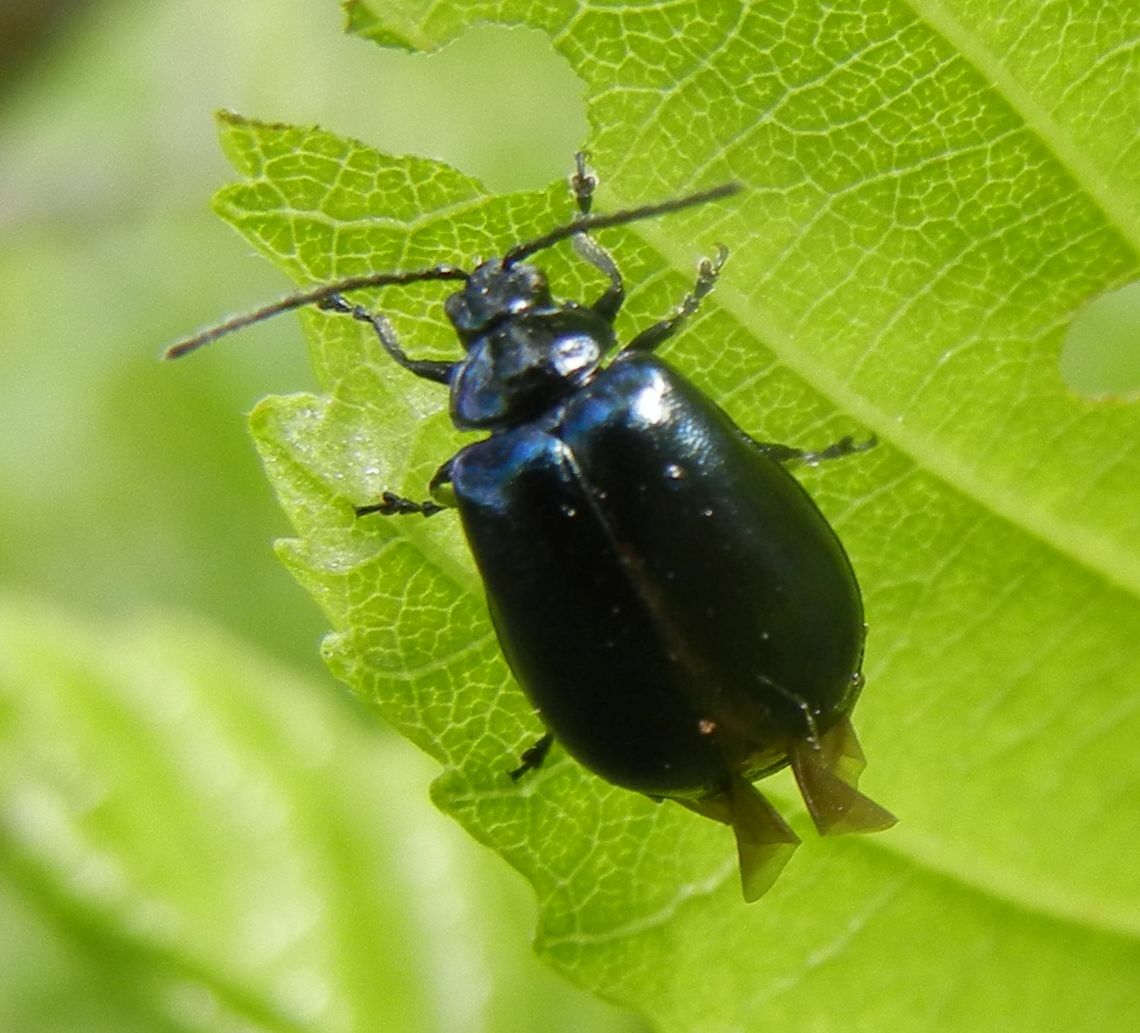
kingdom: Animalia
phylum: Arthropoda
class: Insecta
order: Coleoptera
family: Chrysomelidae
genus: Agelastica
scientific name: Agelastica alni
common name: Alder leaf beetle
